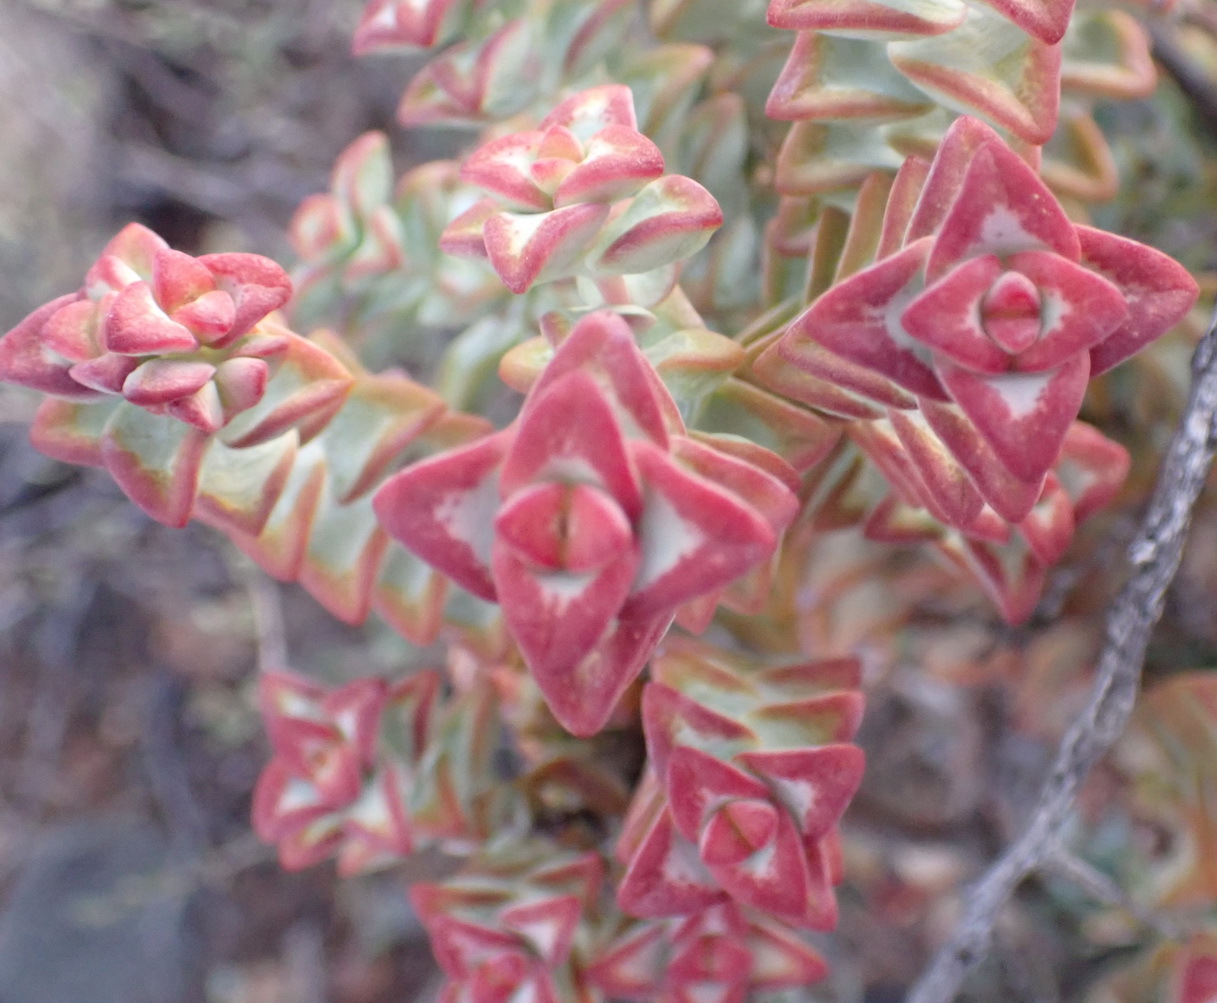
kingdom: Plantae
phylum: Tracheophyta
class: Magnoliopsida
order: Saxifragales
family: Crassulaceae
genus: Crassula
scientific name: Crassula rupestris
